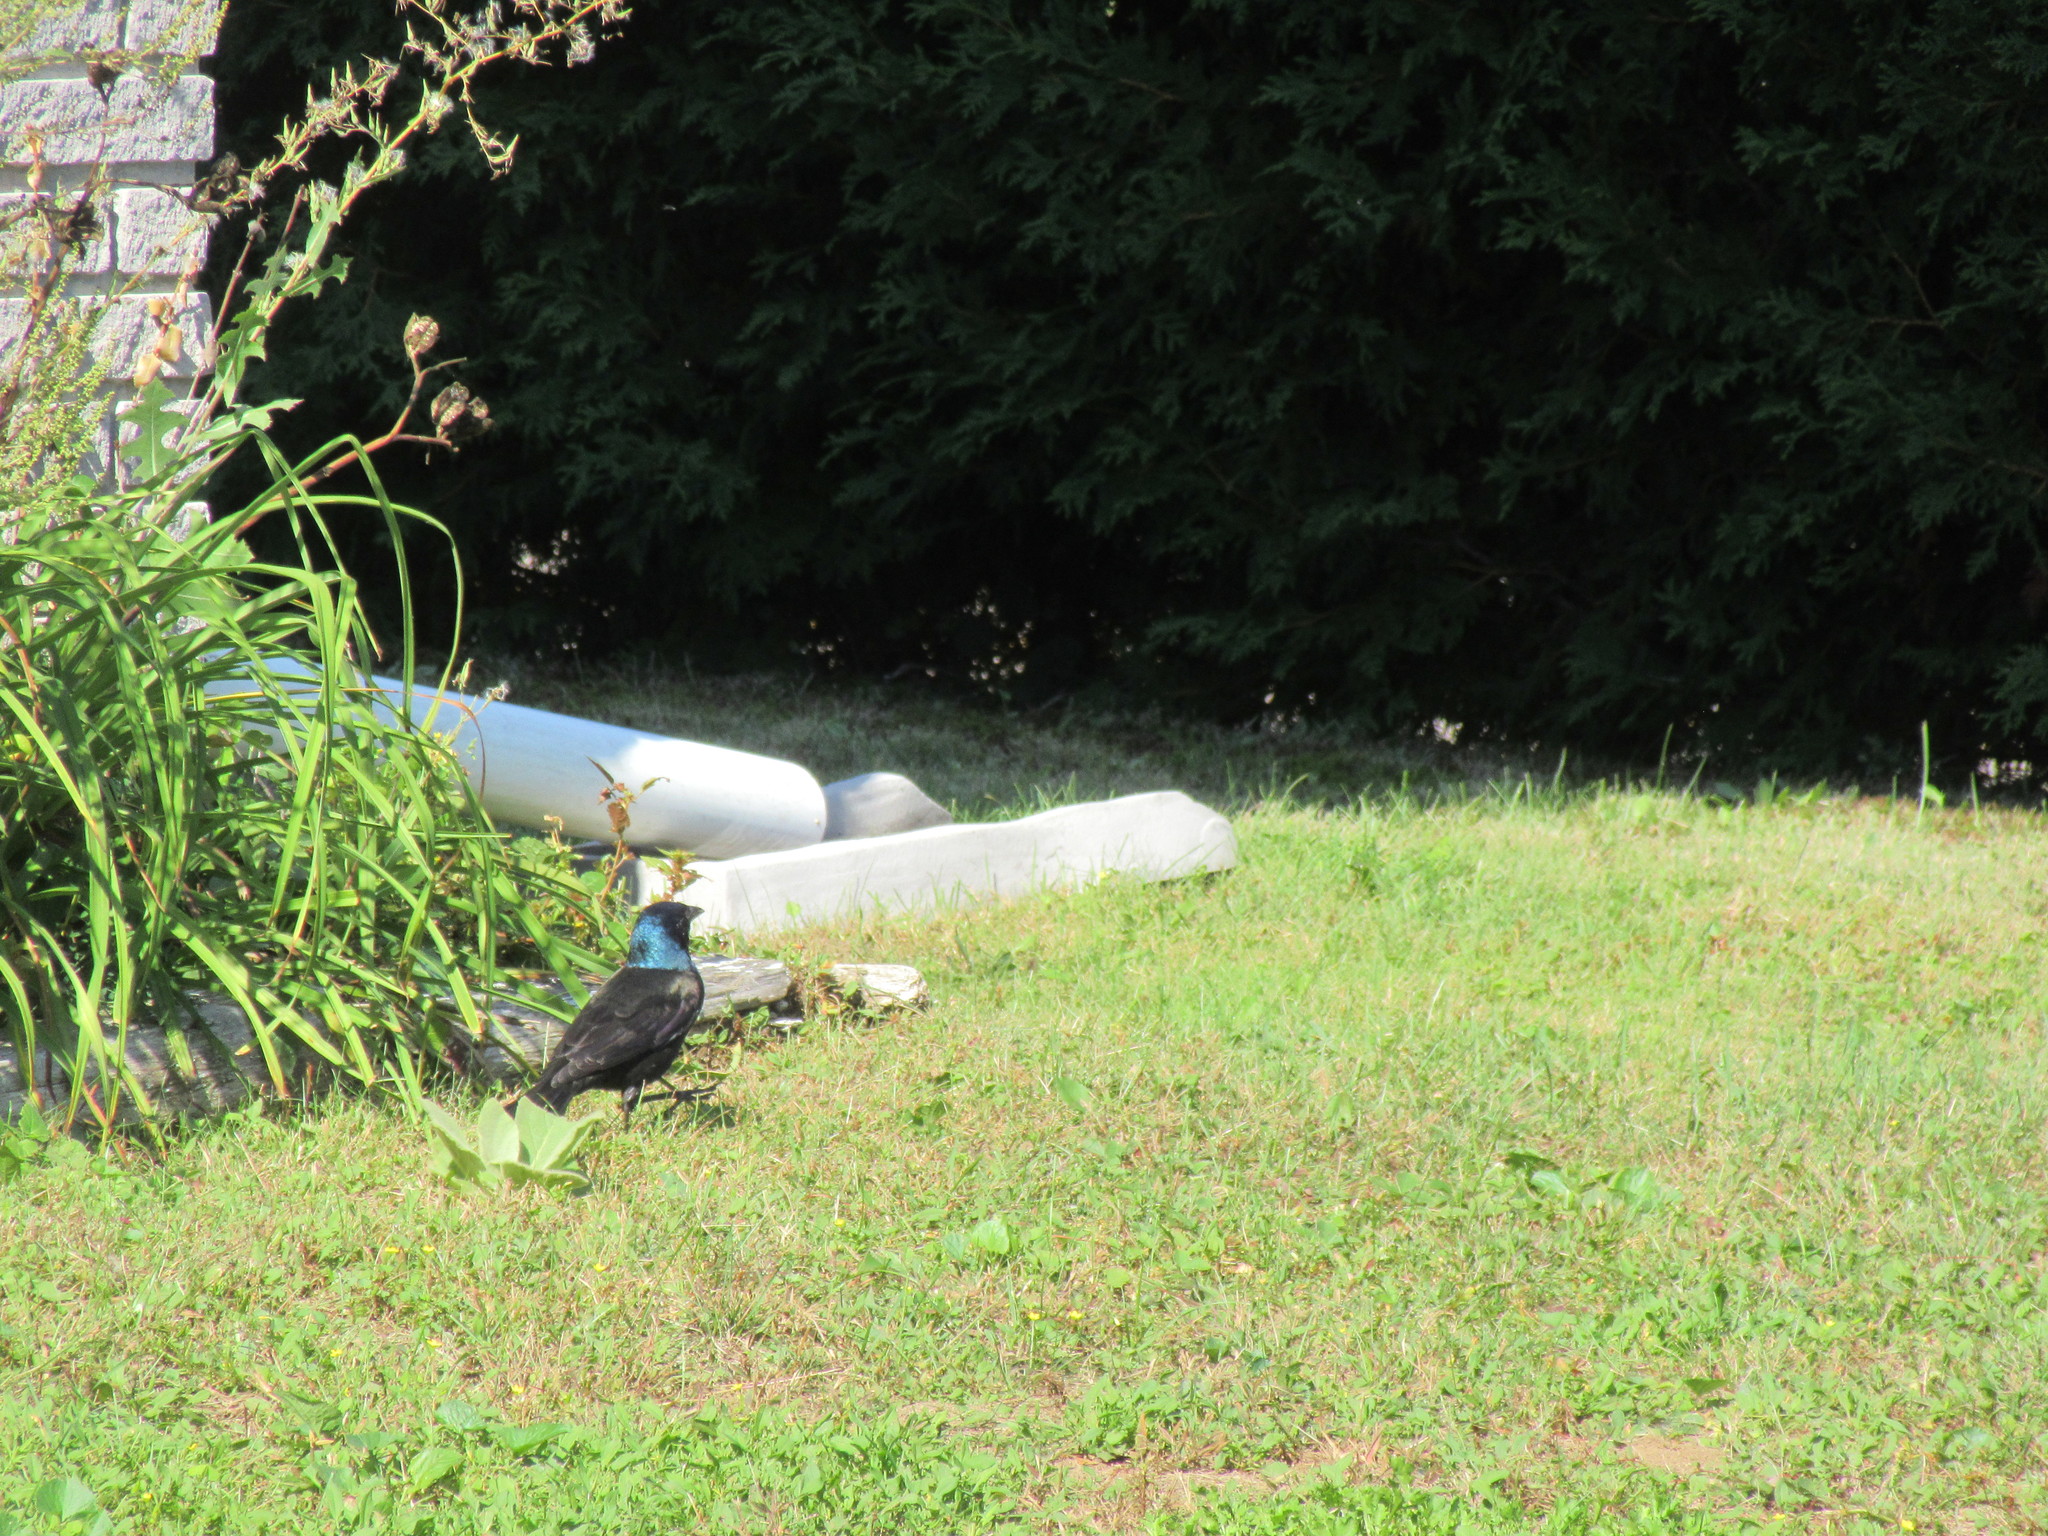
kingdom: Animalia
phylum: Chordata
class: Aves
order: Passeriformes
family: Icteridae
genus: Quiscalus
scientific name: Quiscalus quiscula
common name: Common grackle
